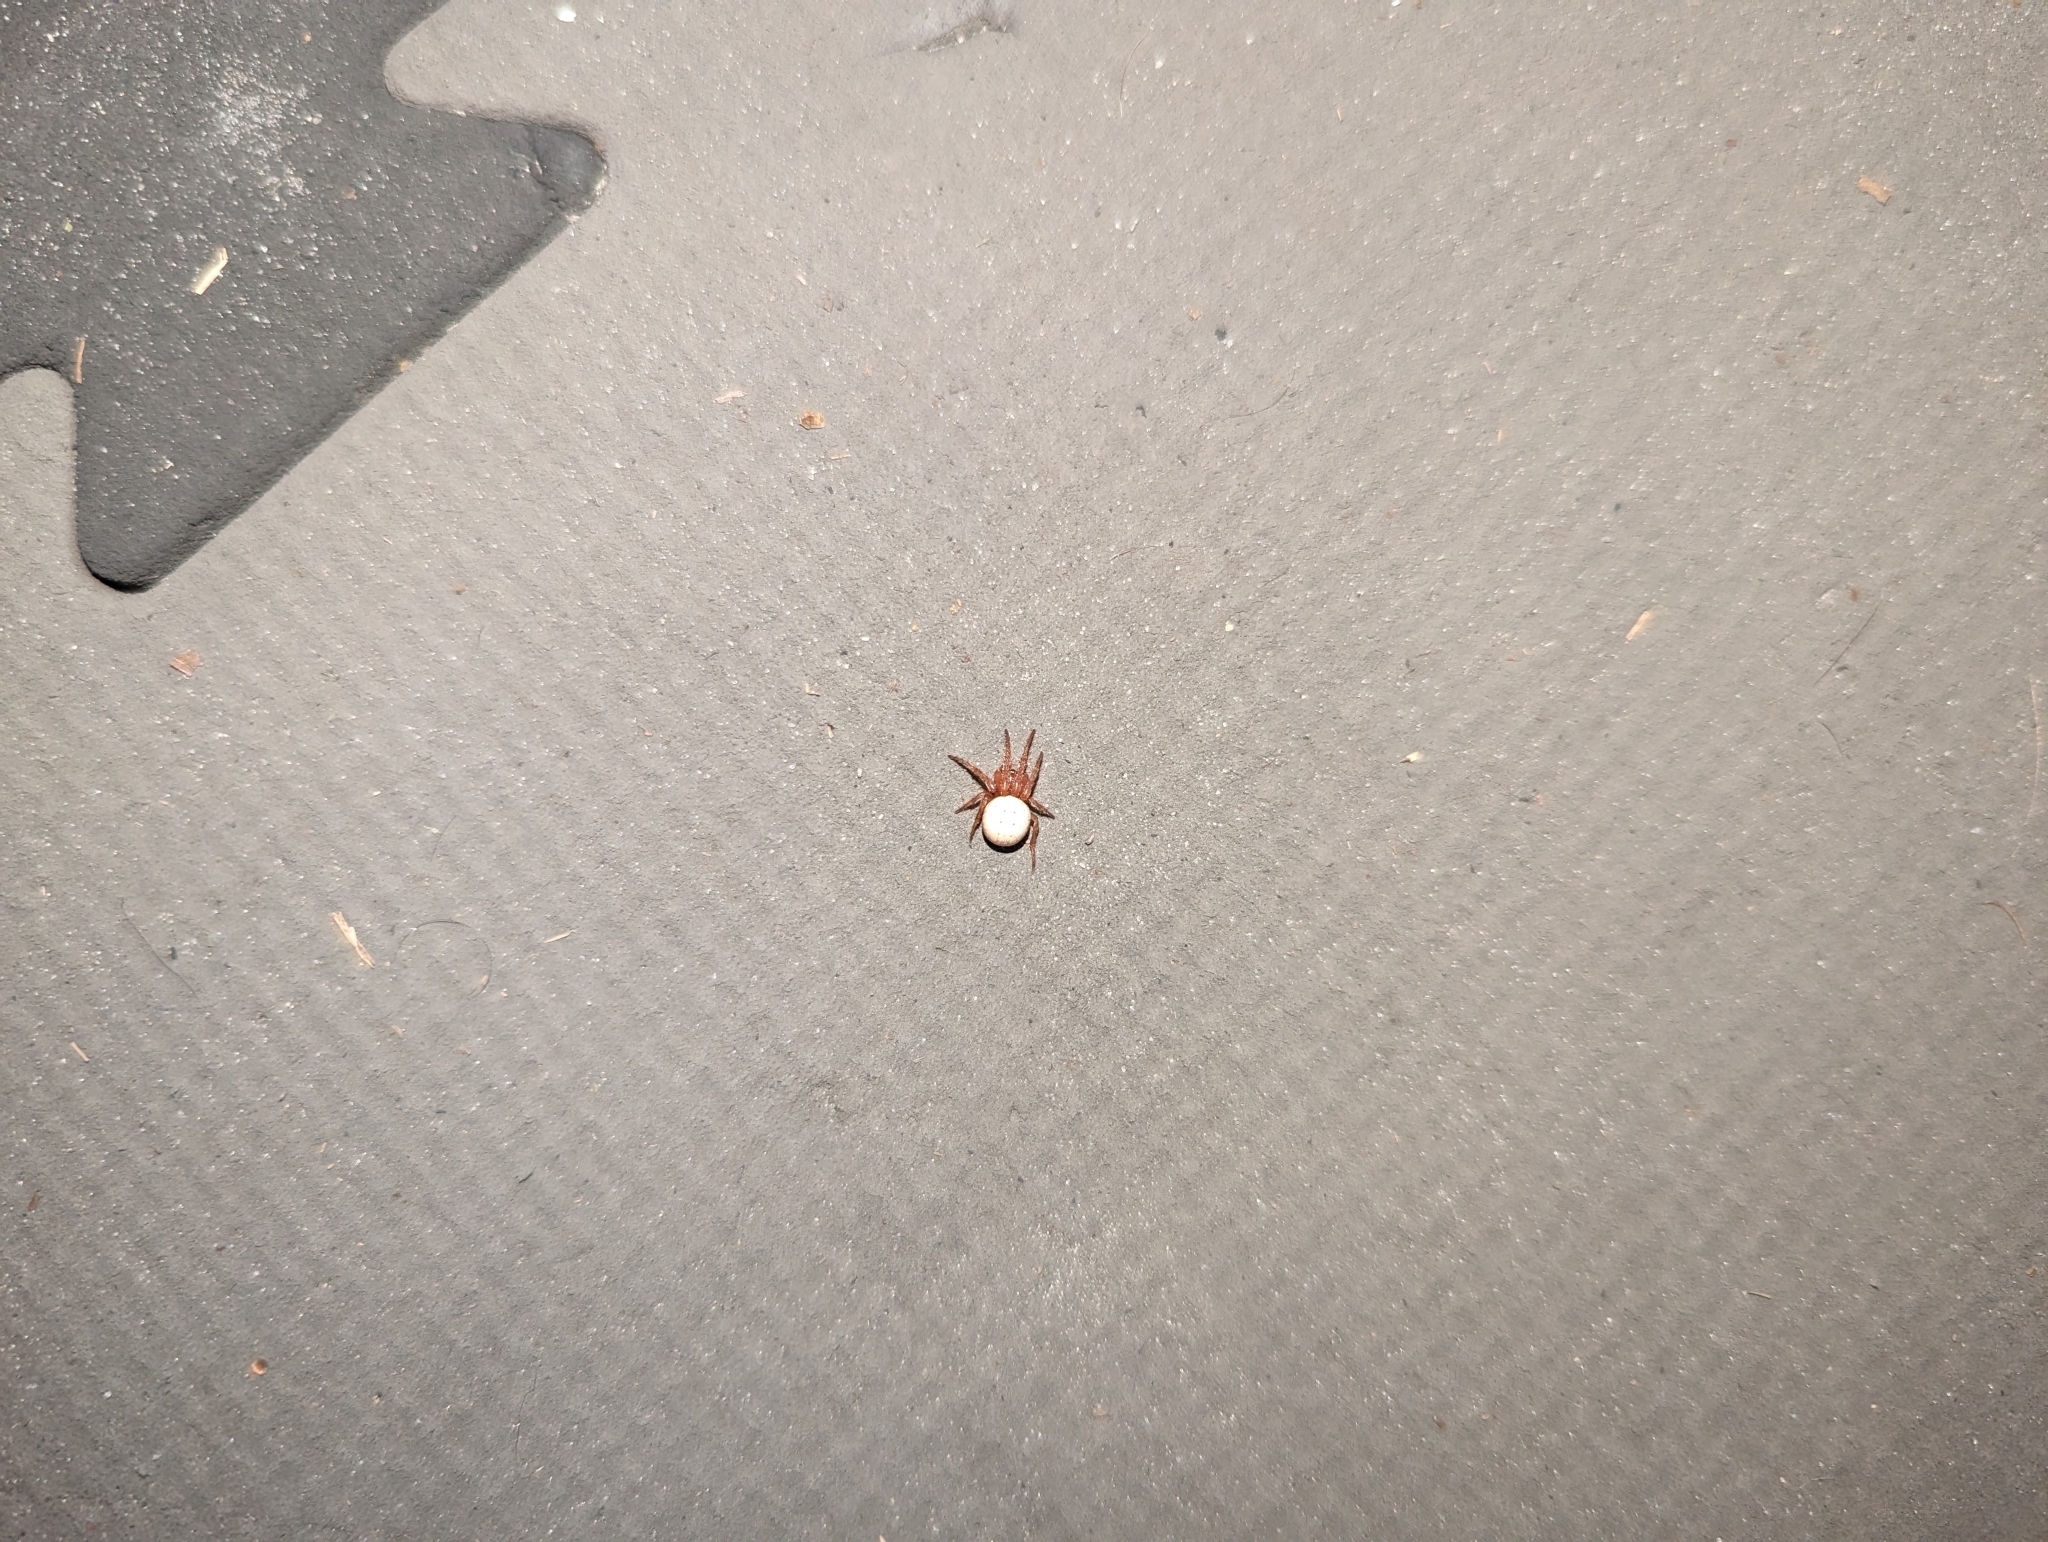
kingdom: Animalia
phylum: Arthropoda
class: Arachnida
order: Araneae
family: Araneidae
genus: Metazygia
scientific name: Metazygia zilloides
